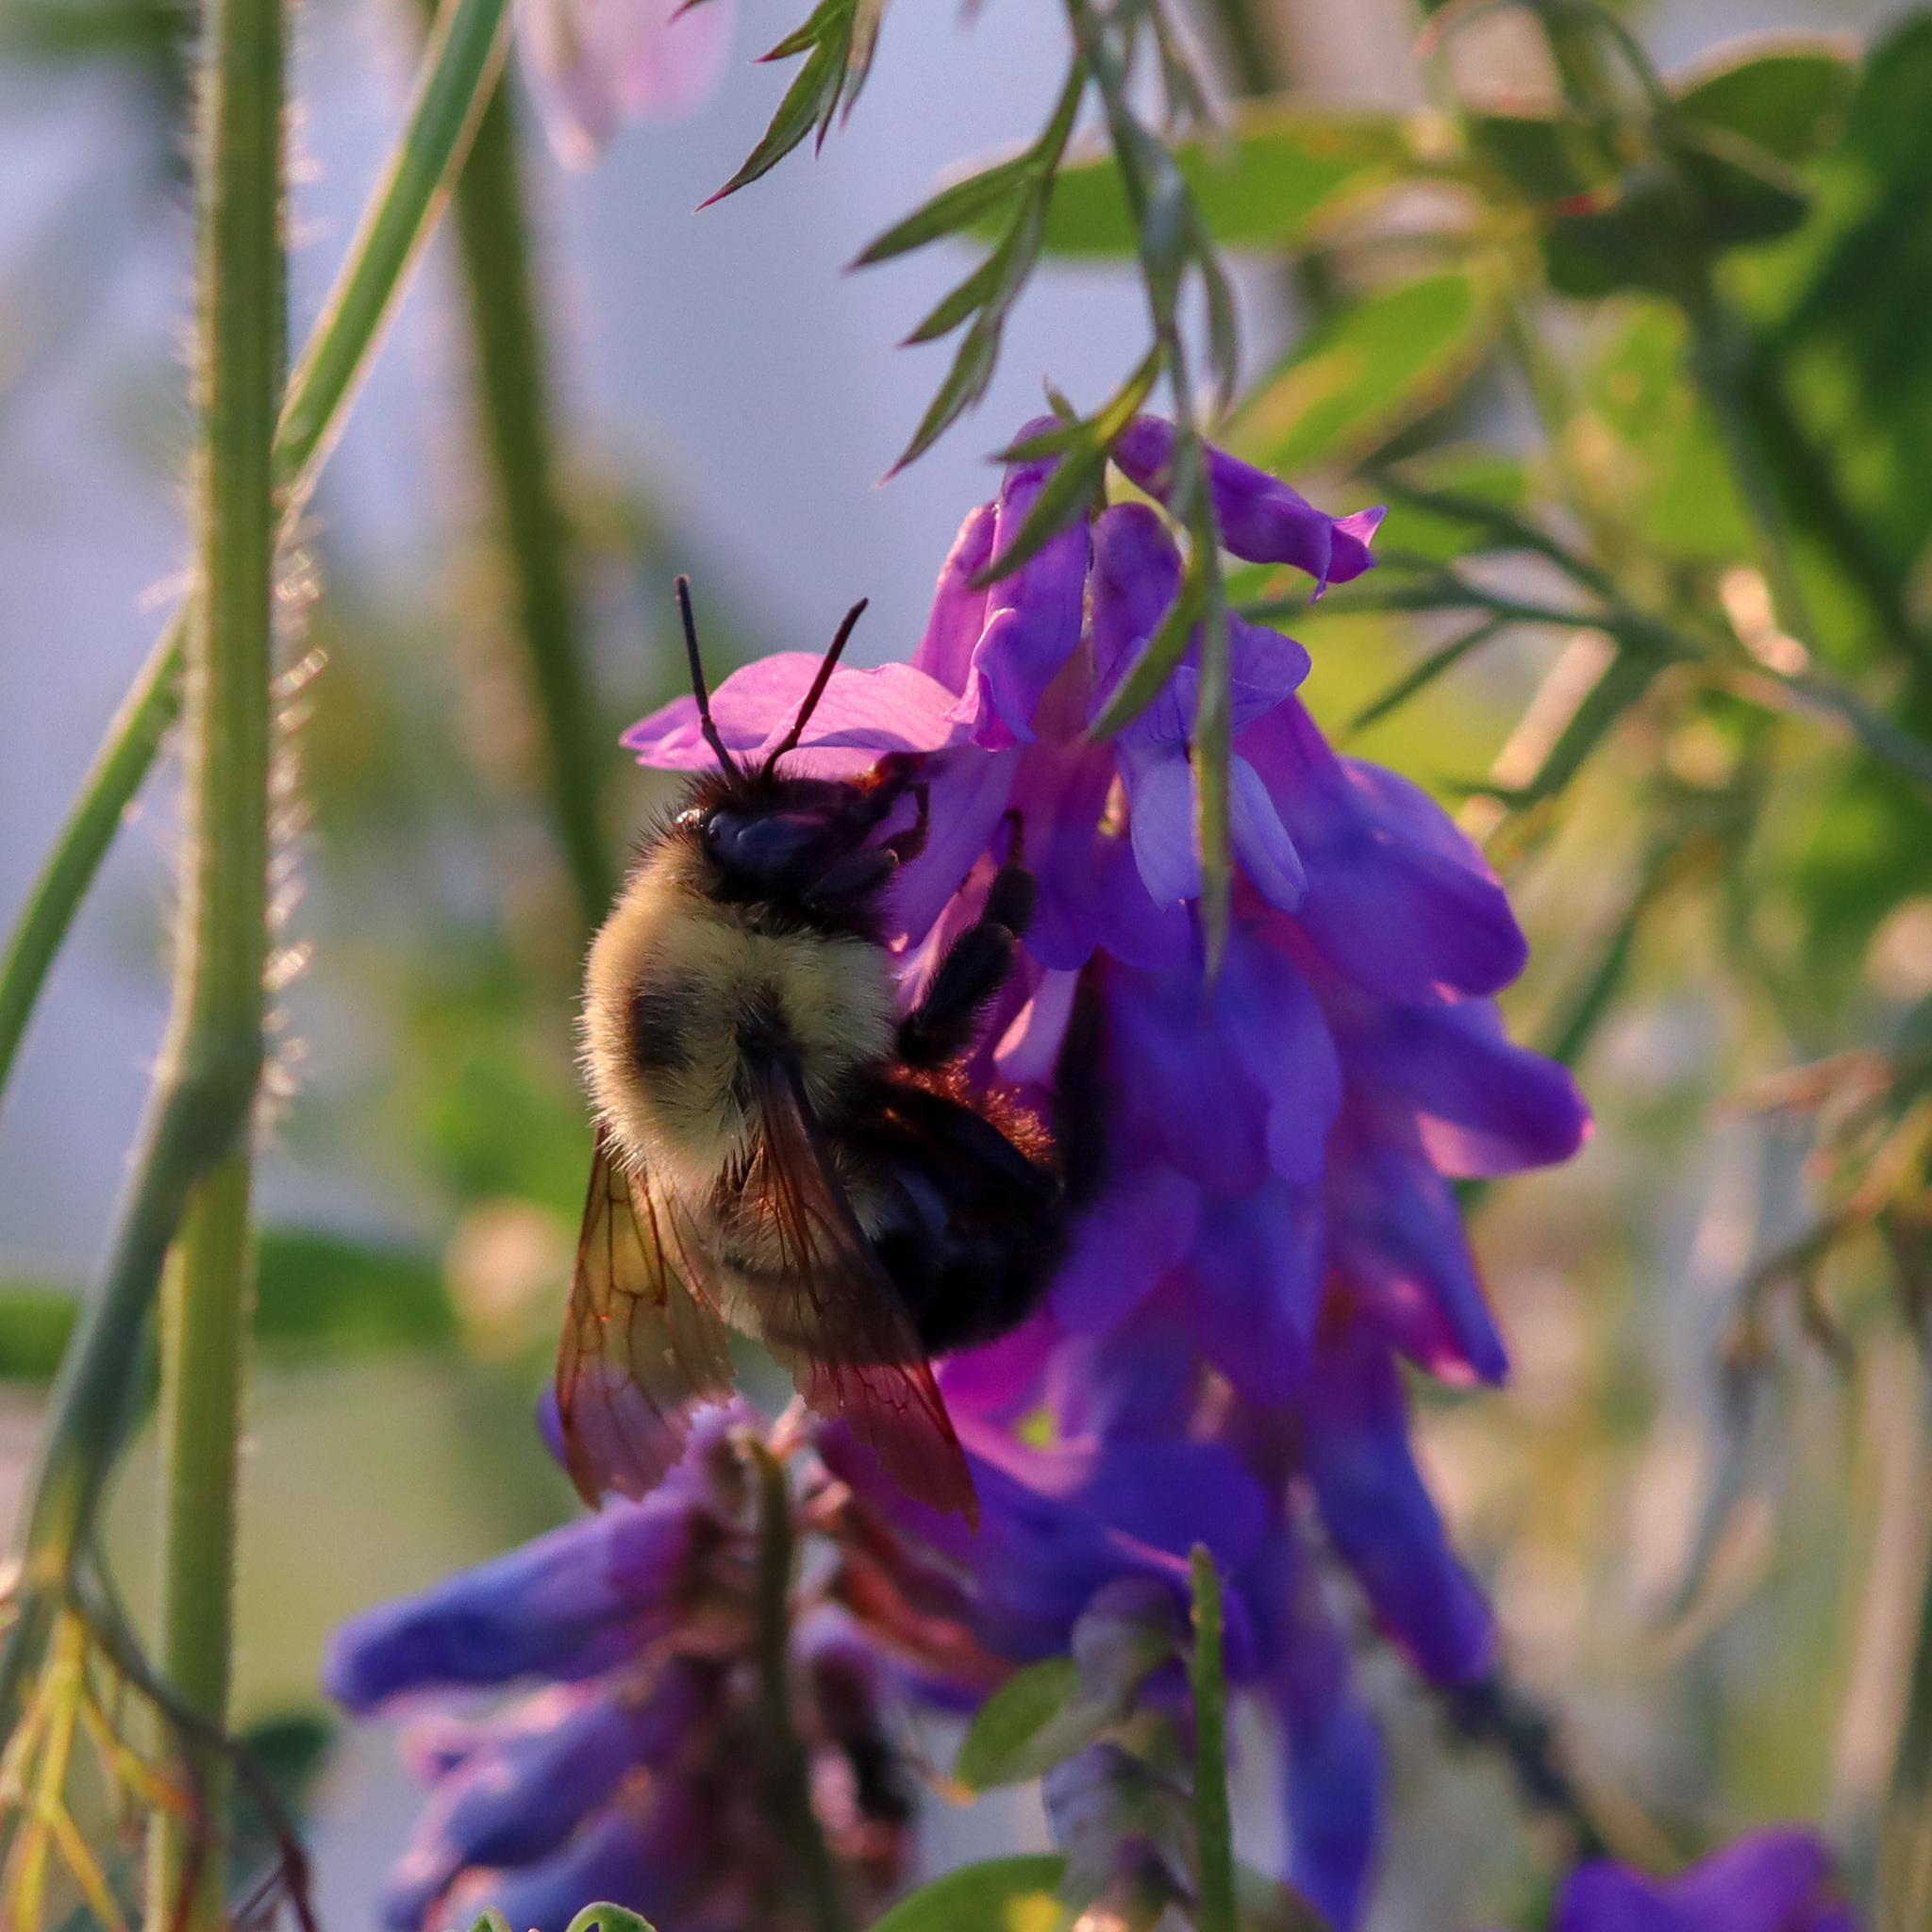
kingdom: Animalia
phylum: Arthropoda
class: Insecta
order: Hymenoptera
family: Apidae
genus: Bombus
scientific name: Bombus bimaculatus
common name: Two-spotted bumble bee
